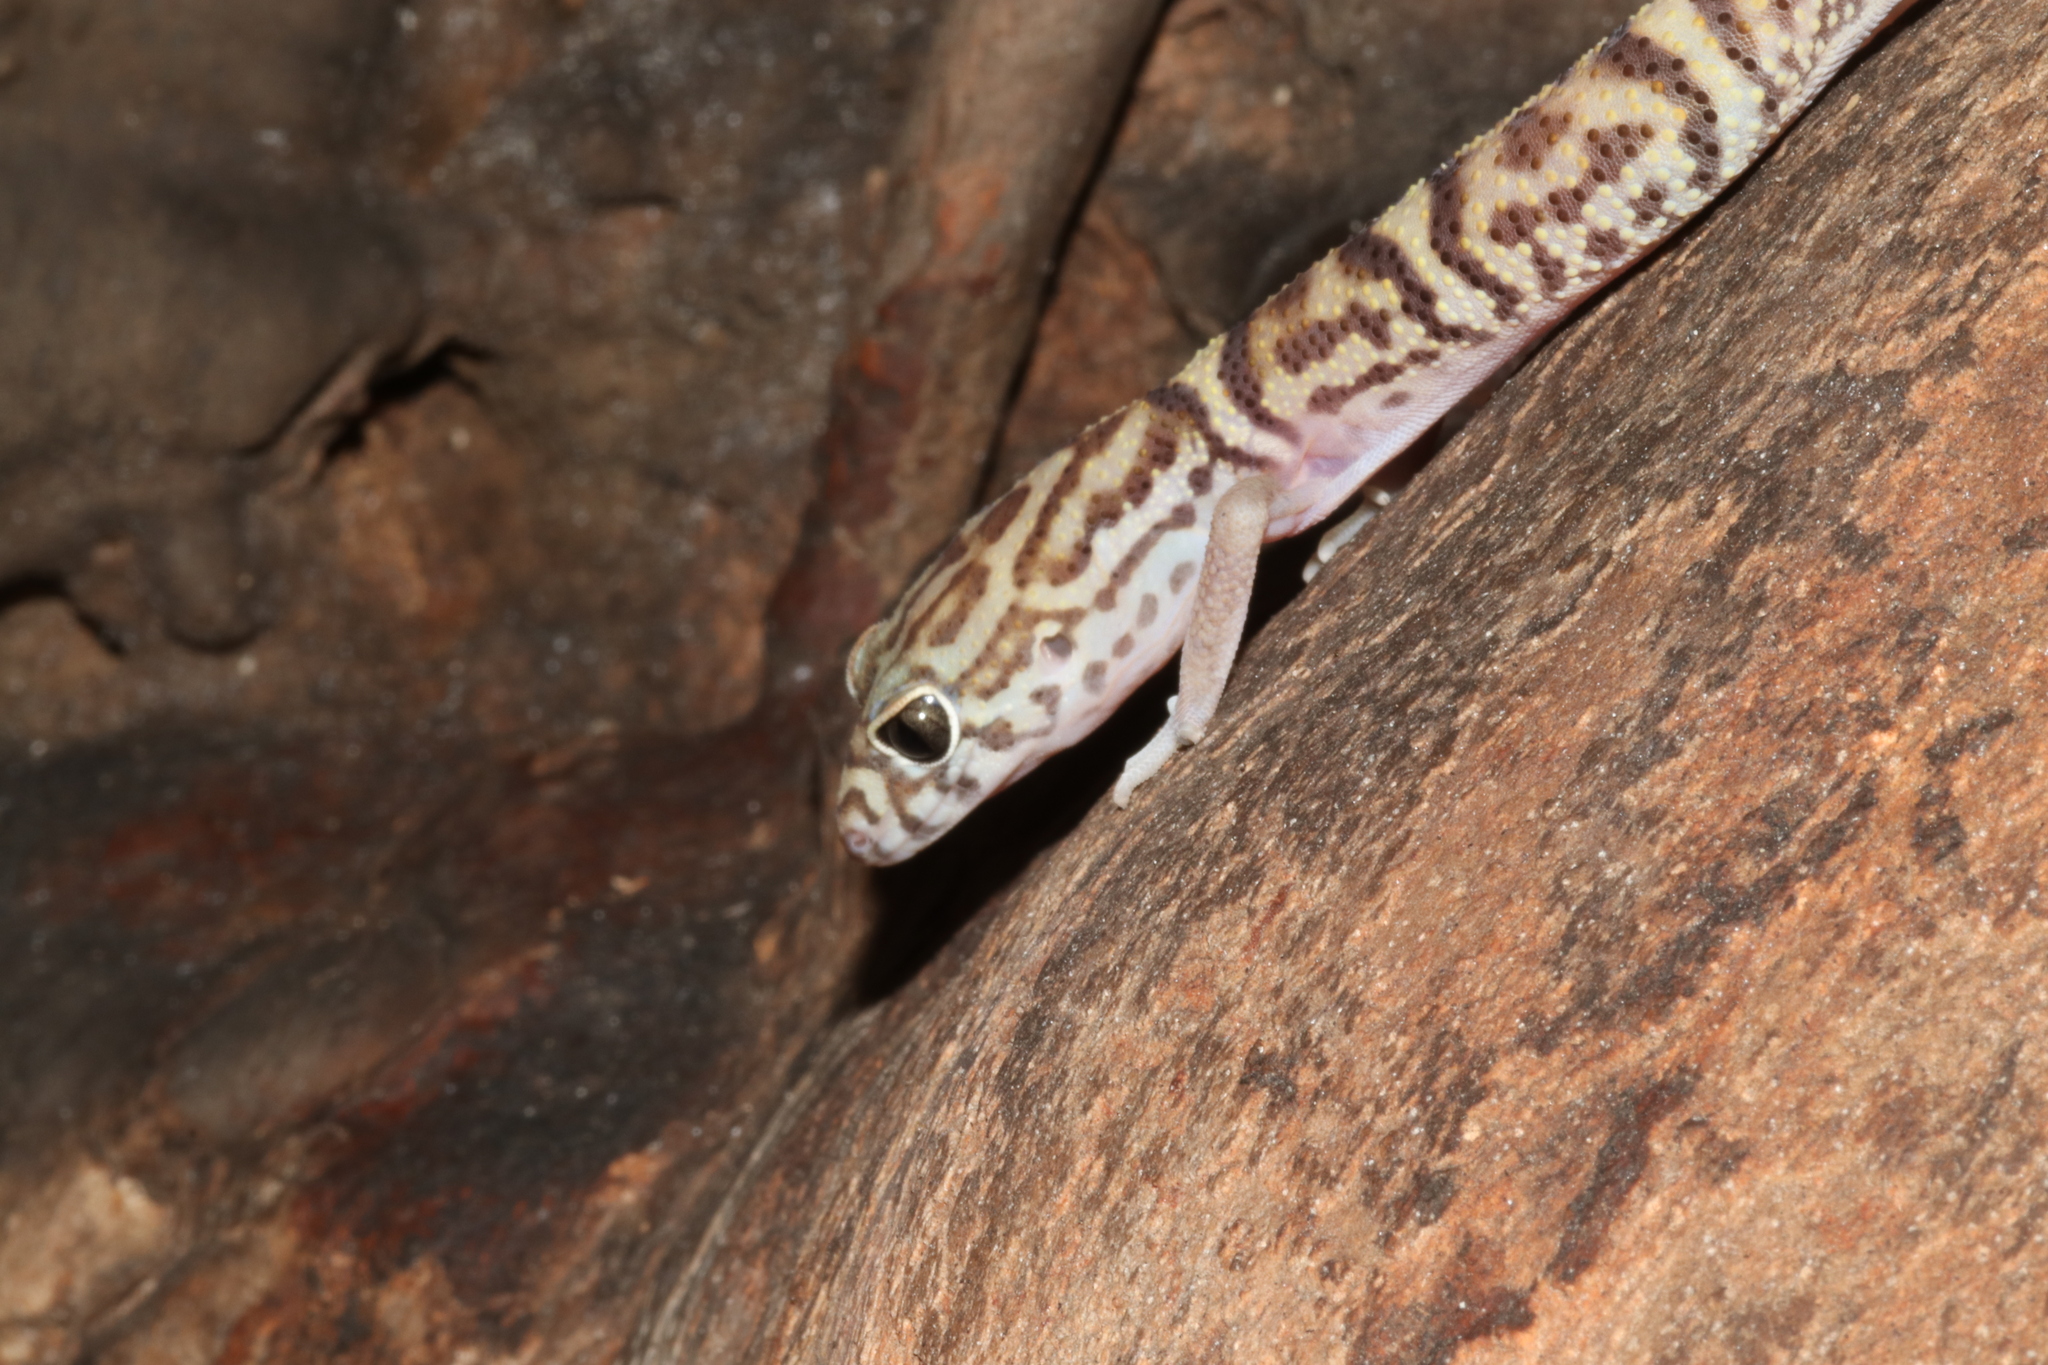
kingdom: Animalia
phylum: Chordata
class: Squamata
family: Eublepharidae
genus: Coleonyx
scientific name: Coleonyx elegans
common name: Yucatan banded gecko
